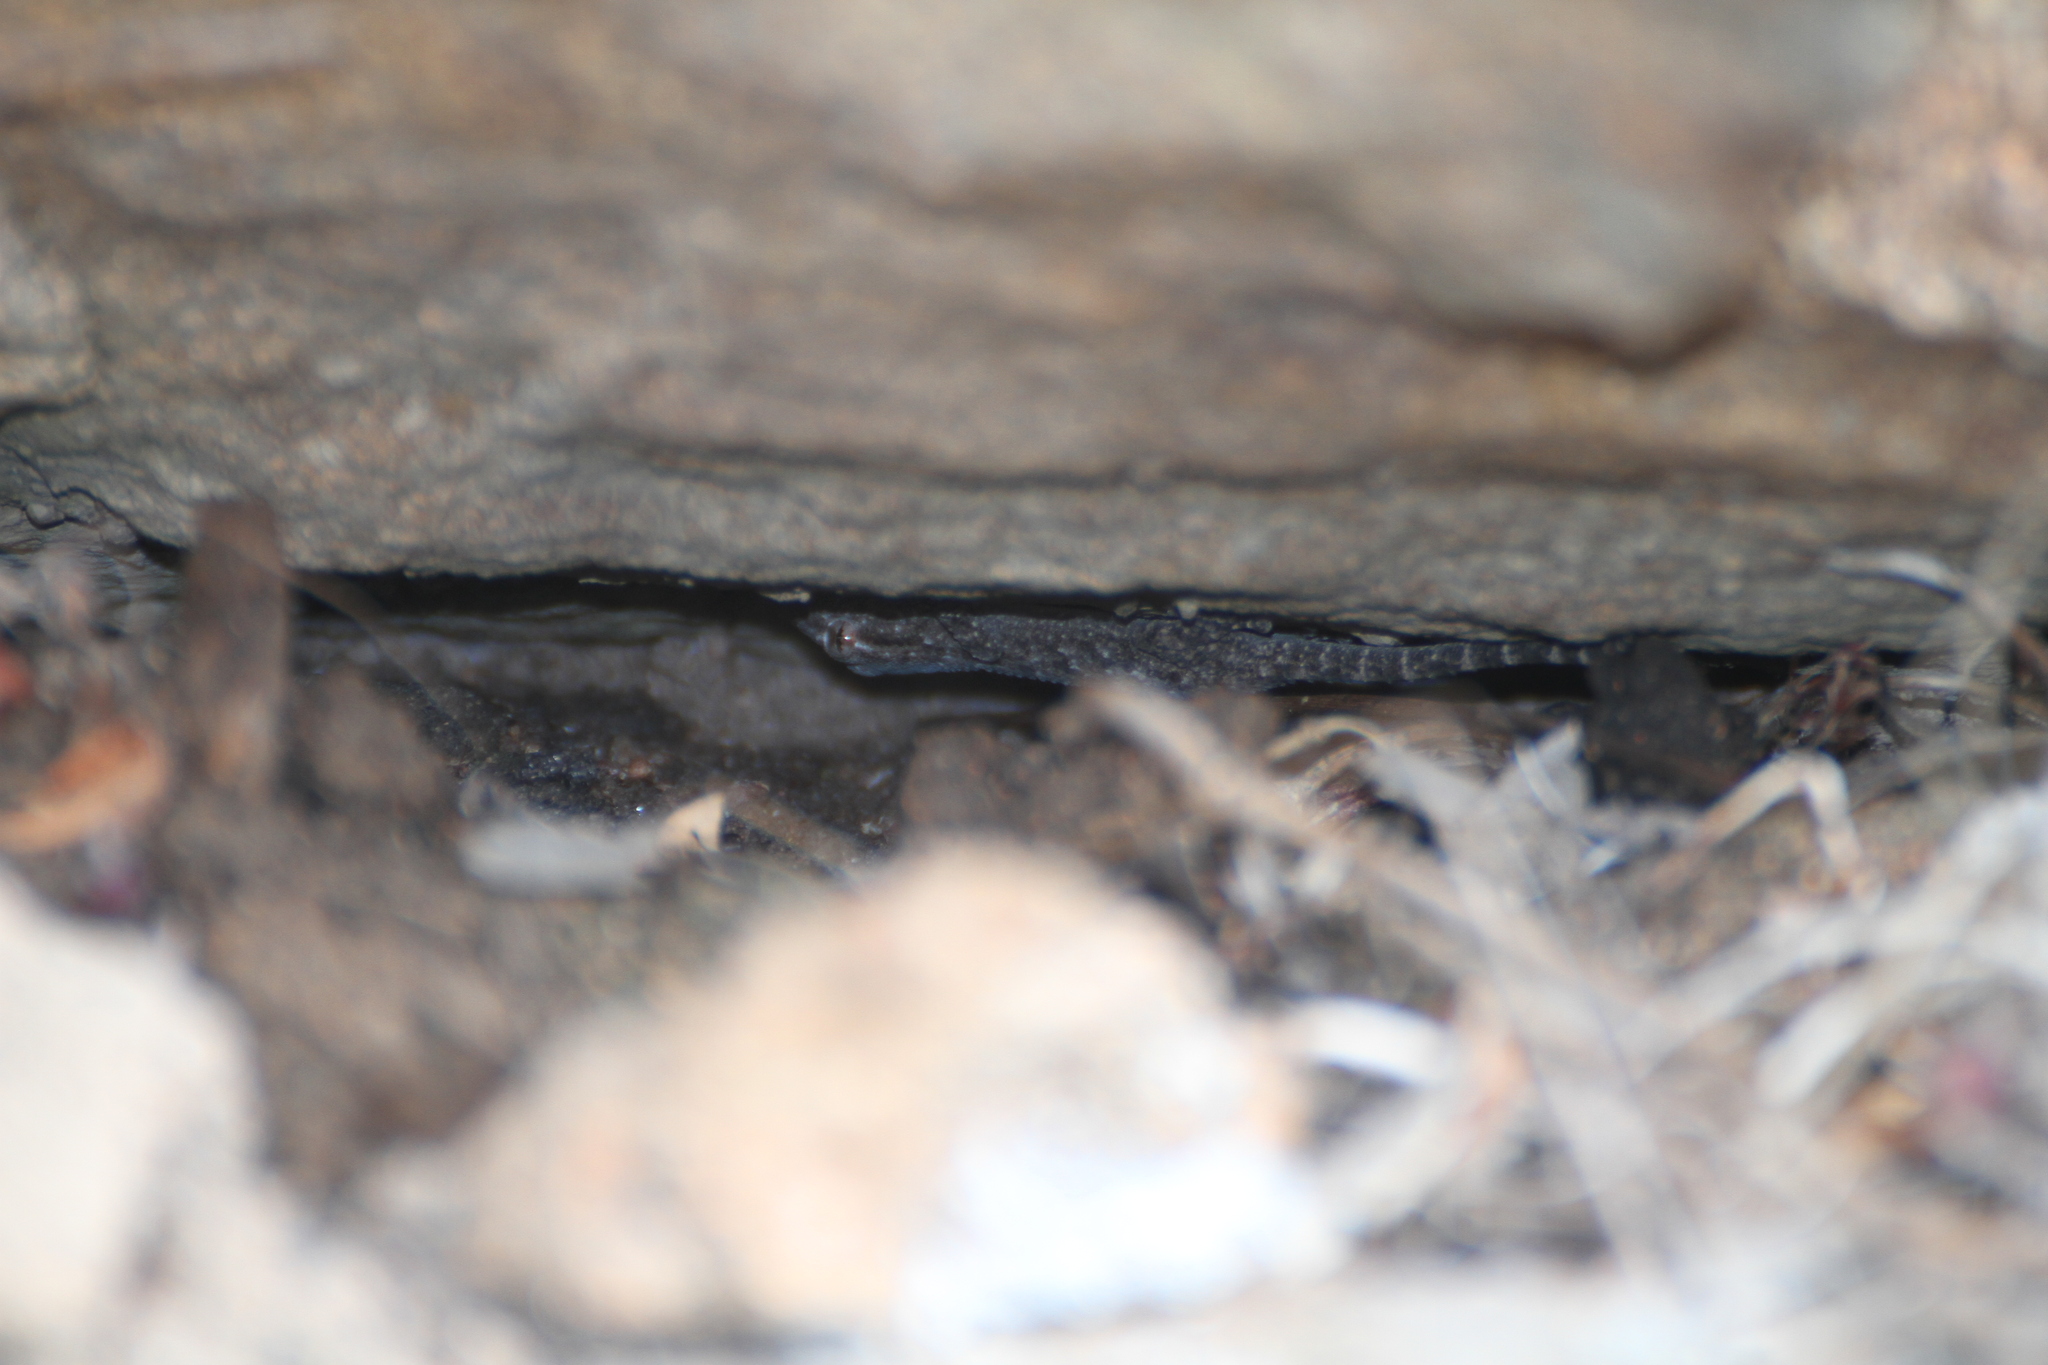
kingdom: Animalia
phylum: Chordata
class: Squamata
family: Phyllodactylidae
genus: Tarentola
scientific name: Tarentola mauritanica
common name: Moorish gecko
